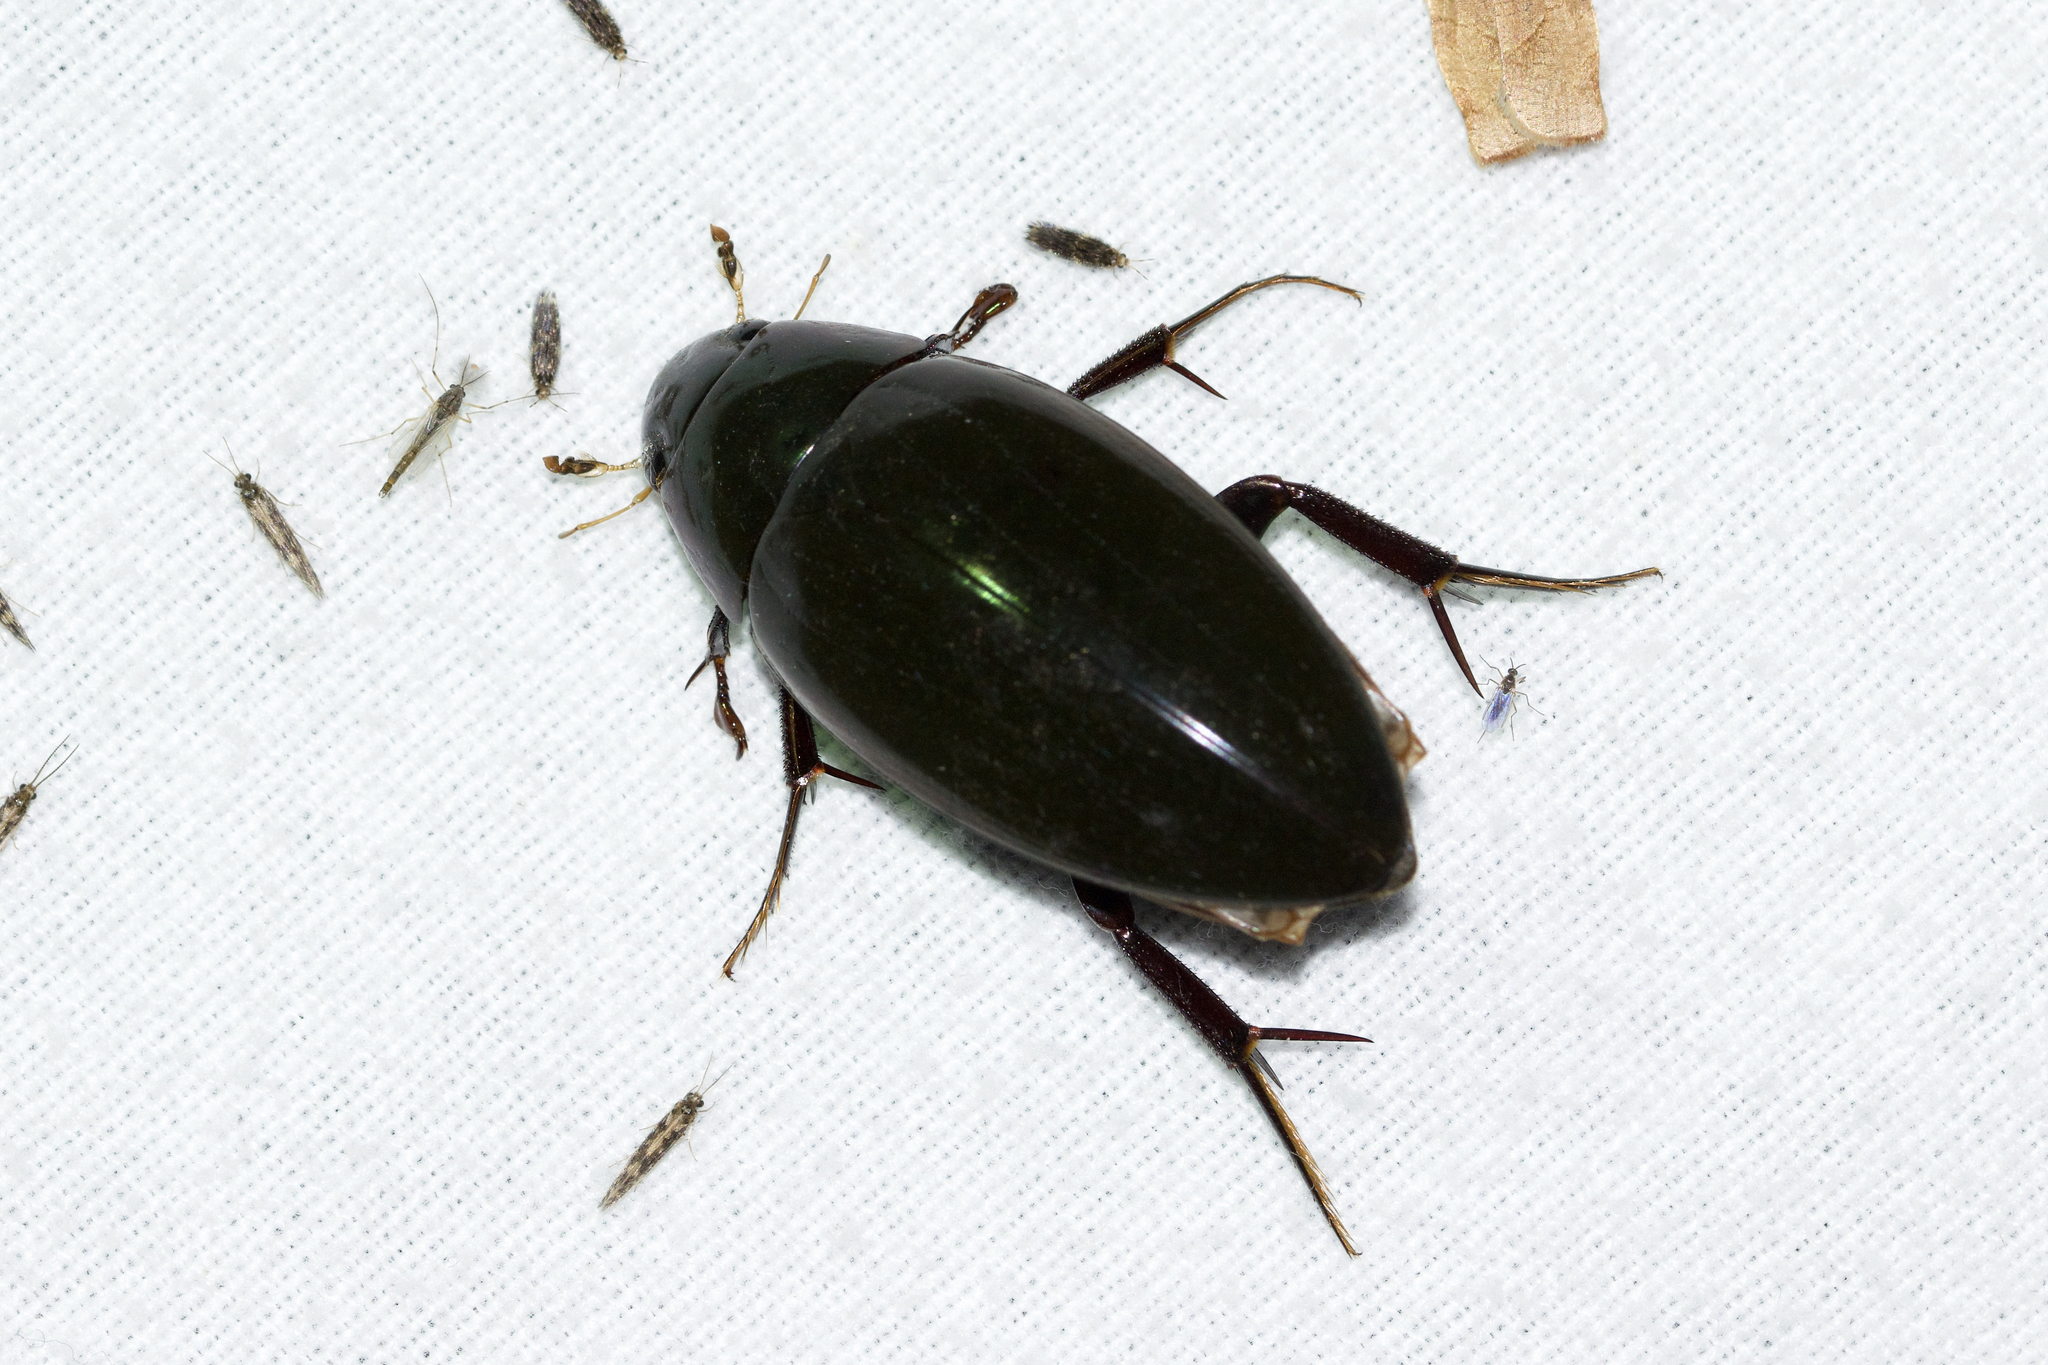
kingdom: Animalia
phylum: Arthropoda
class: Insecta
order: Coleoptera
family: Hydrophilidae
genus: Hydrophilus
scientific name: Hydrophilus triangularis
